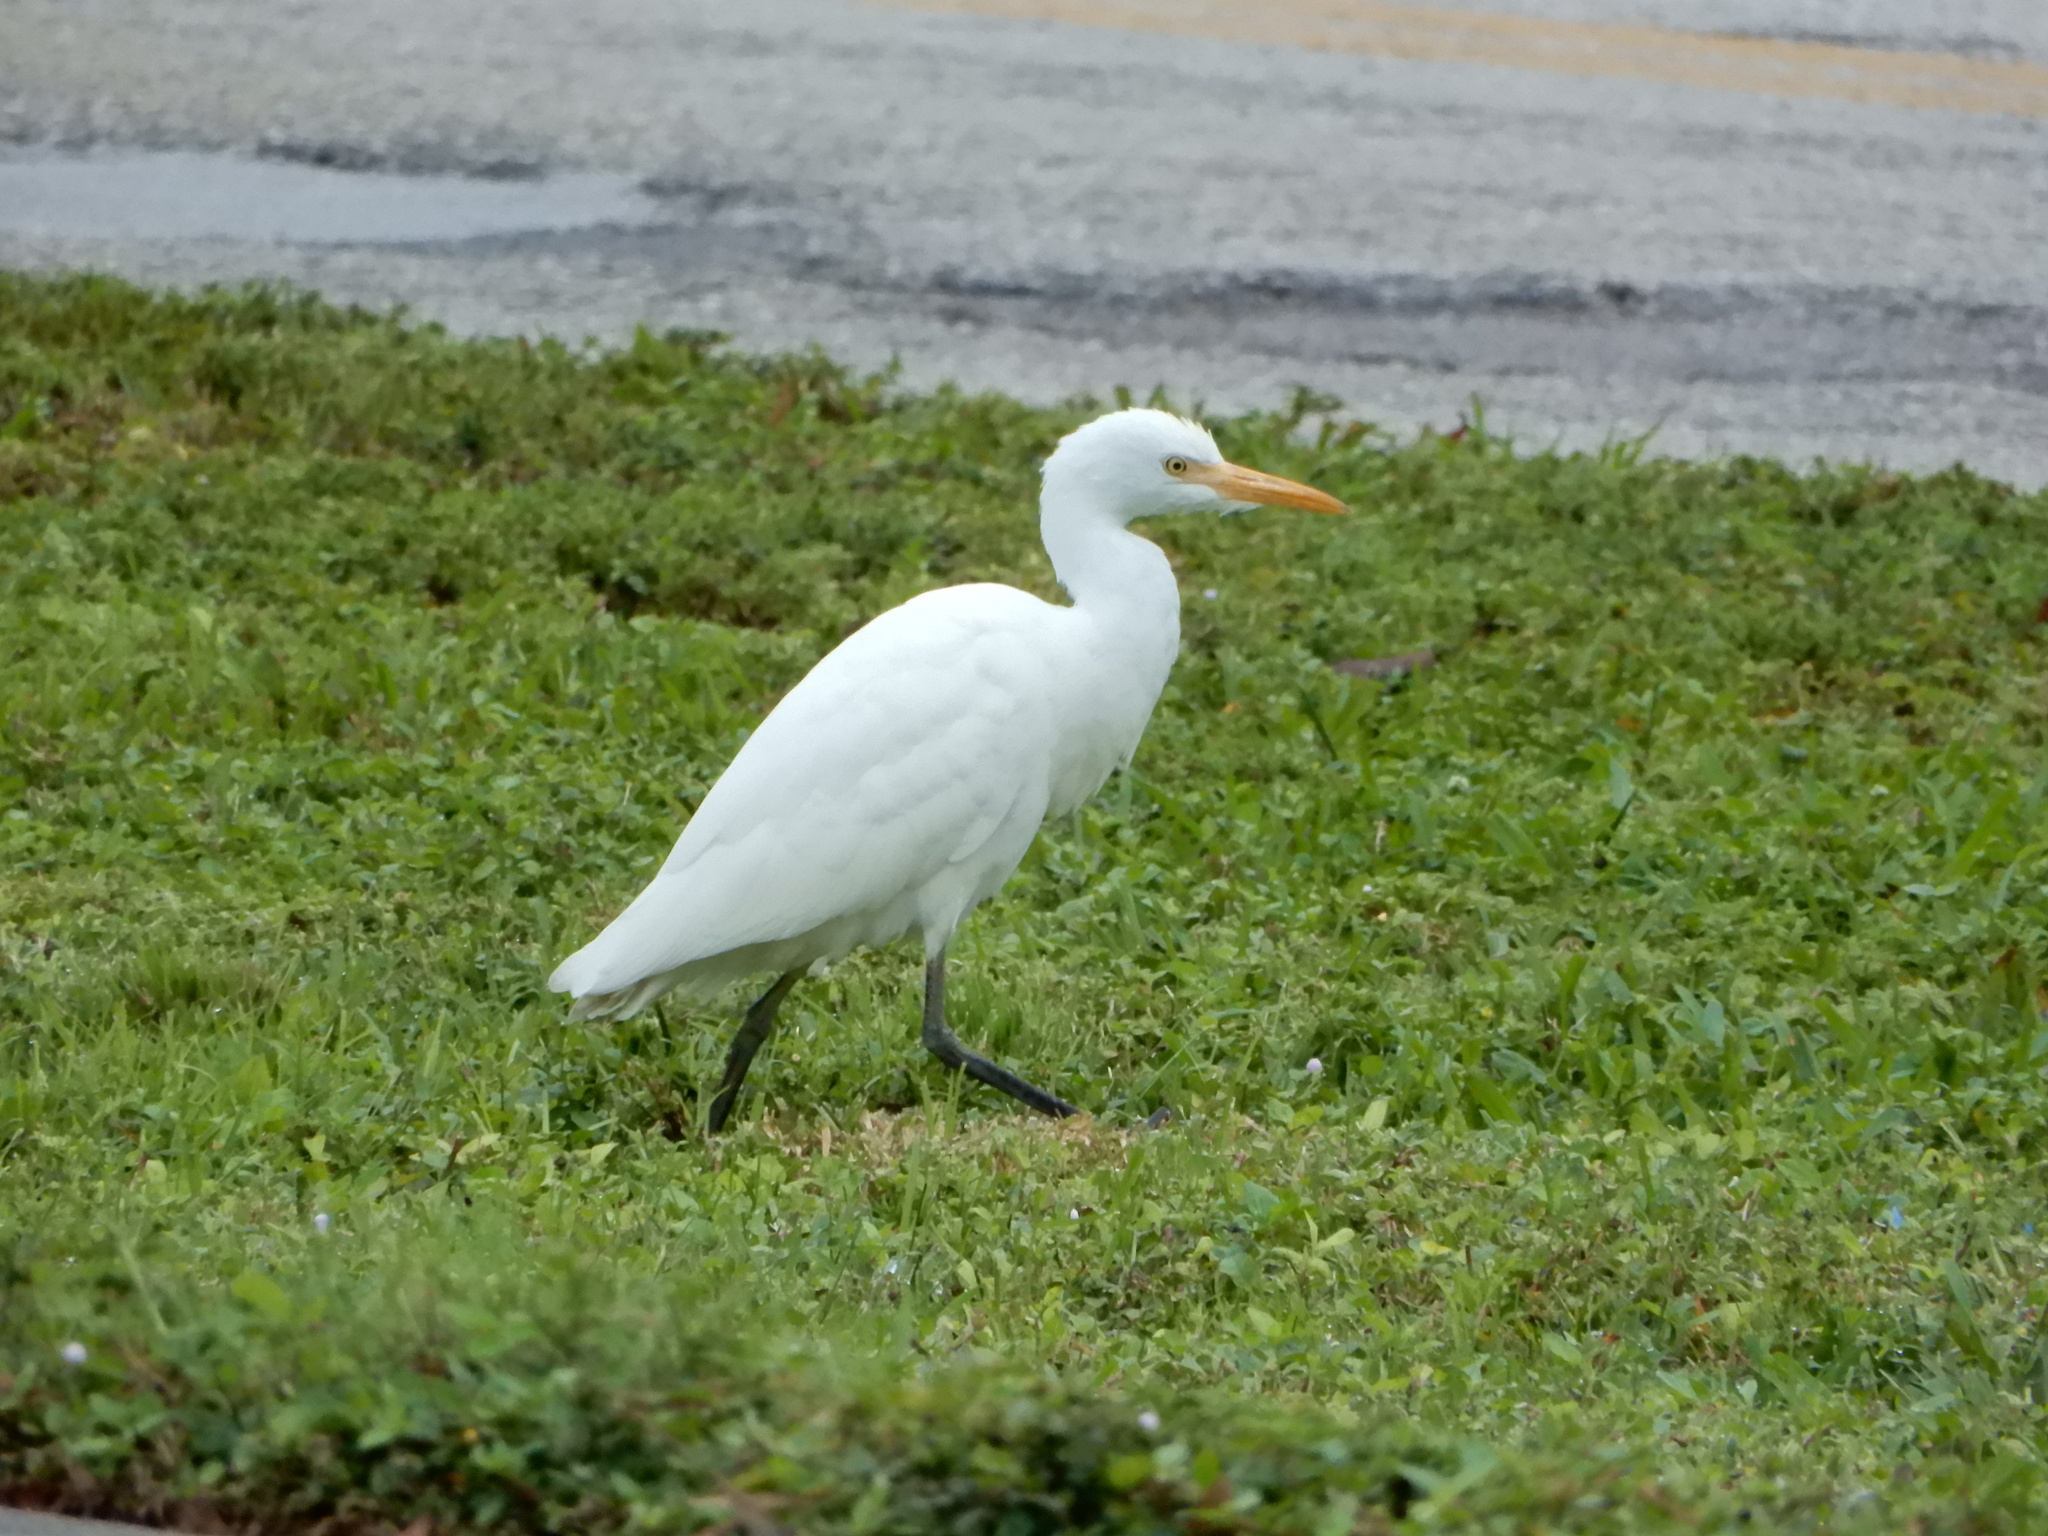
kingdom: Animalia
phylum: Chordata
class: Aves
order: Pelecaniformes
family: Ardeidae
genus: Bubulcus
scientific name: Bubulcus ibis
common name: Cattle egret
